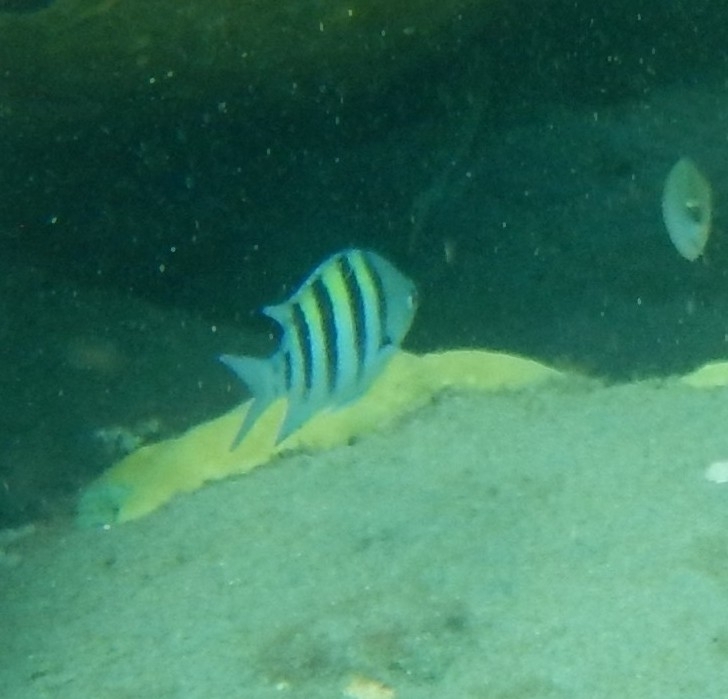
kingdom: Animalia
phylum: Chordata
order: Perciformes
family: Pomacentridae
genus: Abudefduf
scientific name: Abudefduf saxatilis
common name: Sergeant major
